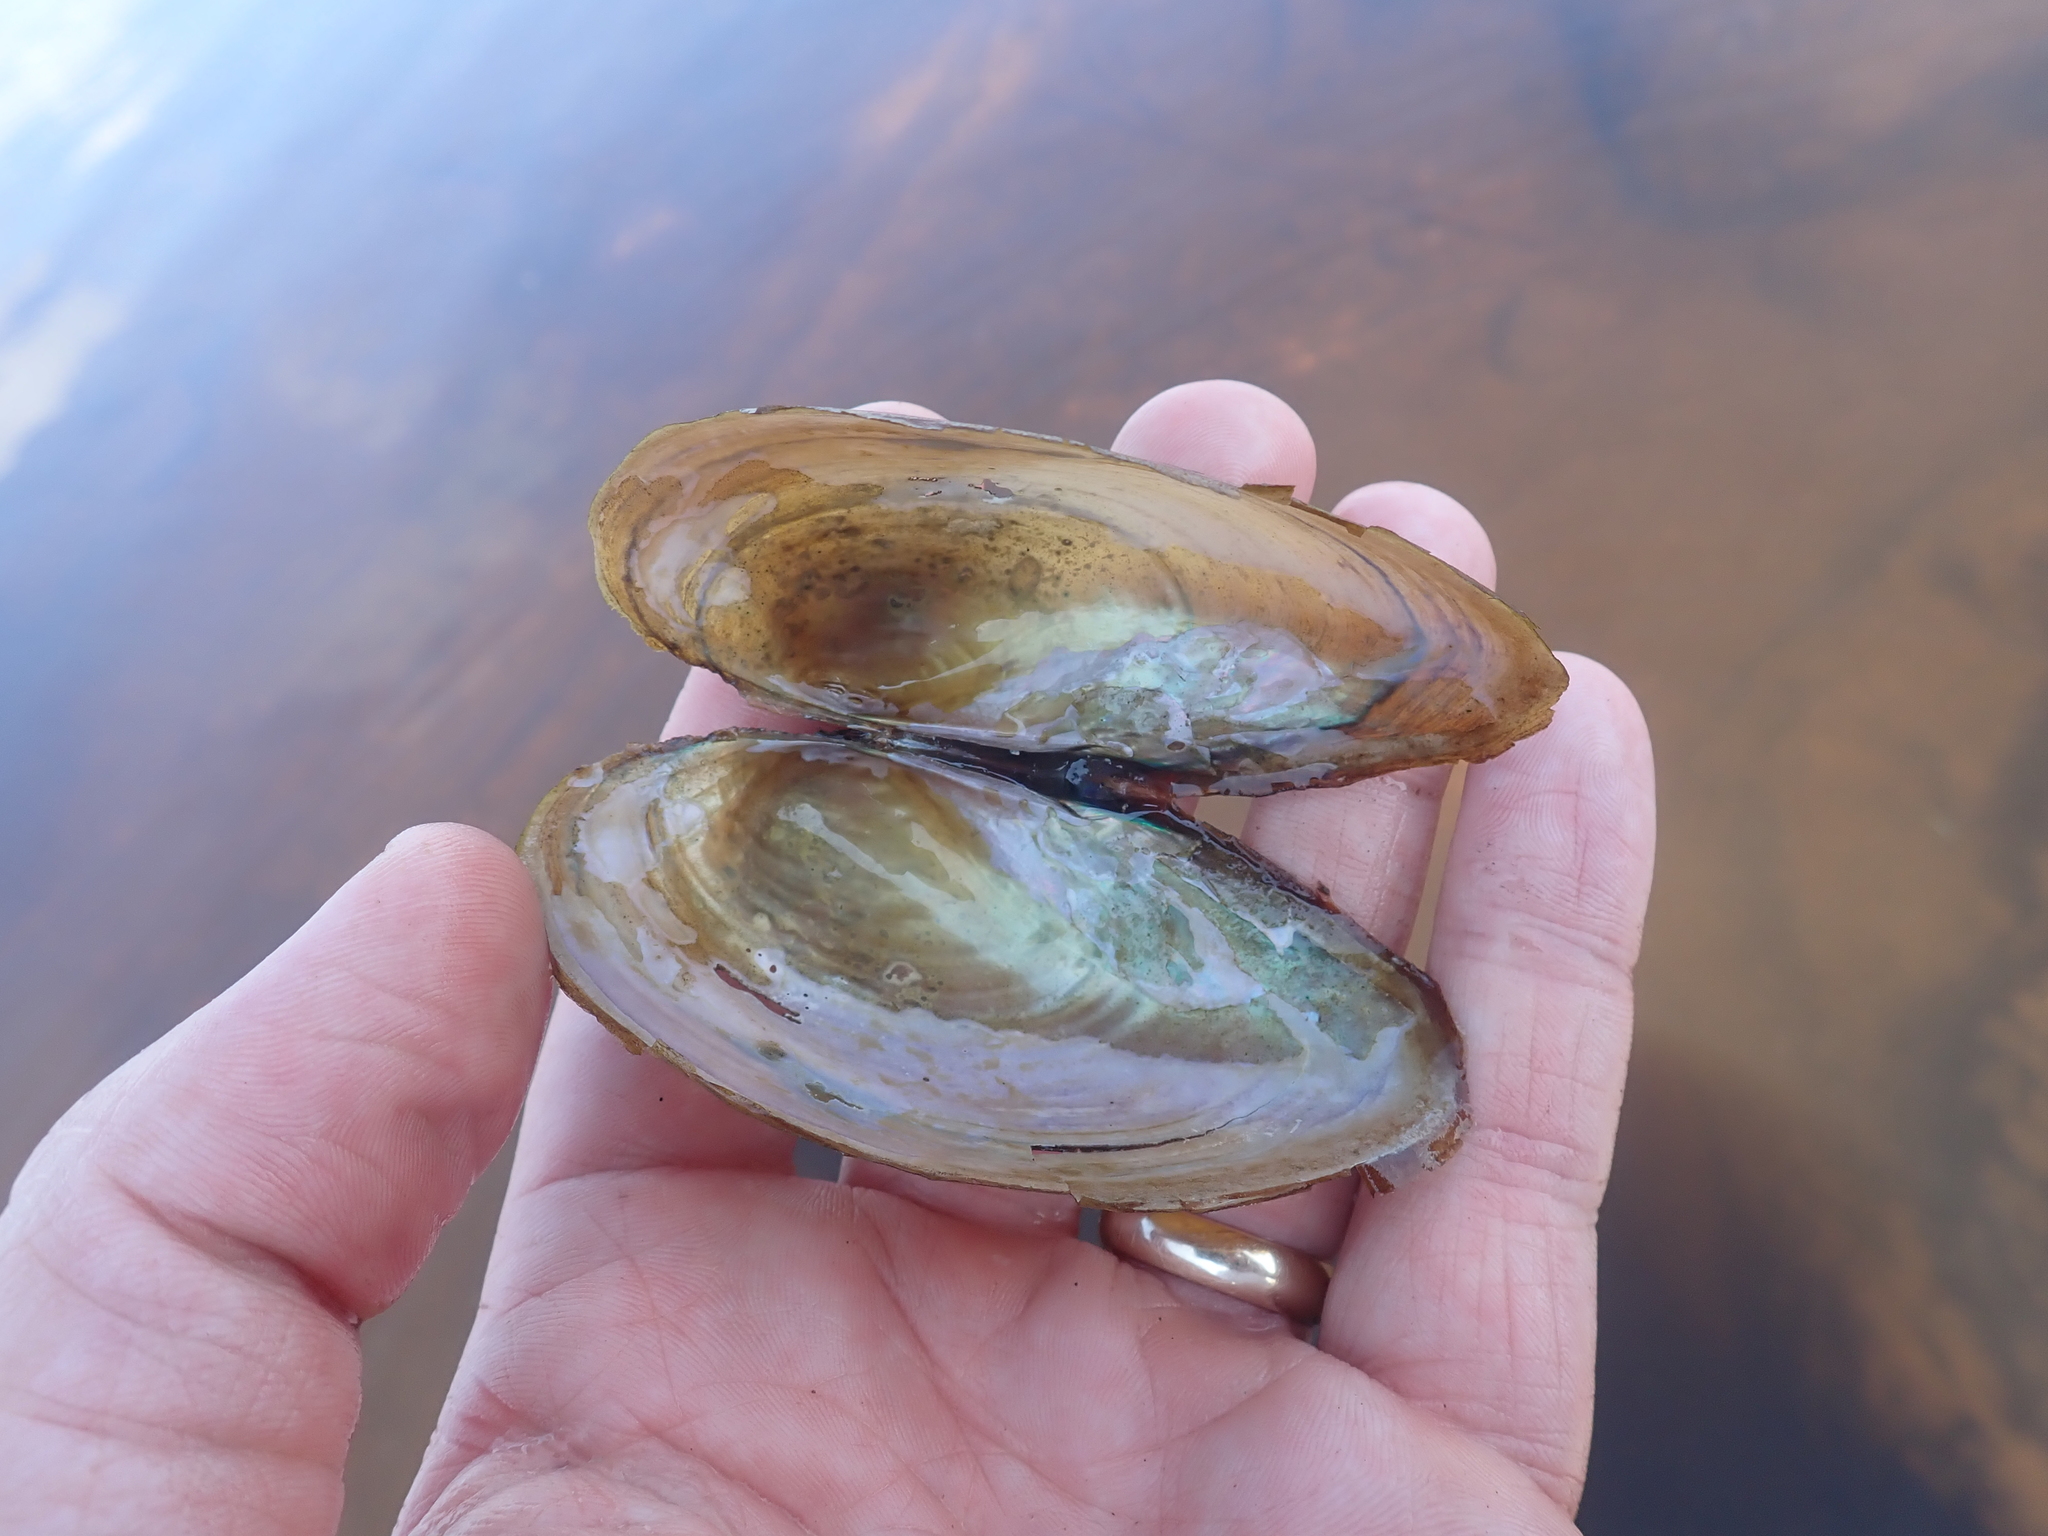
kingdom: Animalia
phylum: Mollusca
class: Bivalvia
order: Unionida
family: Unionidae
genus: Pyganodon
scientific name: Pyganodon cataracta
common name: Eastern floater
